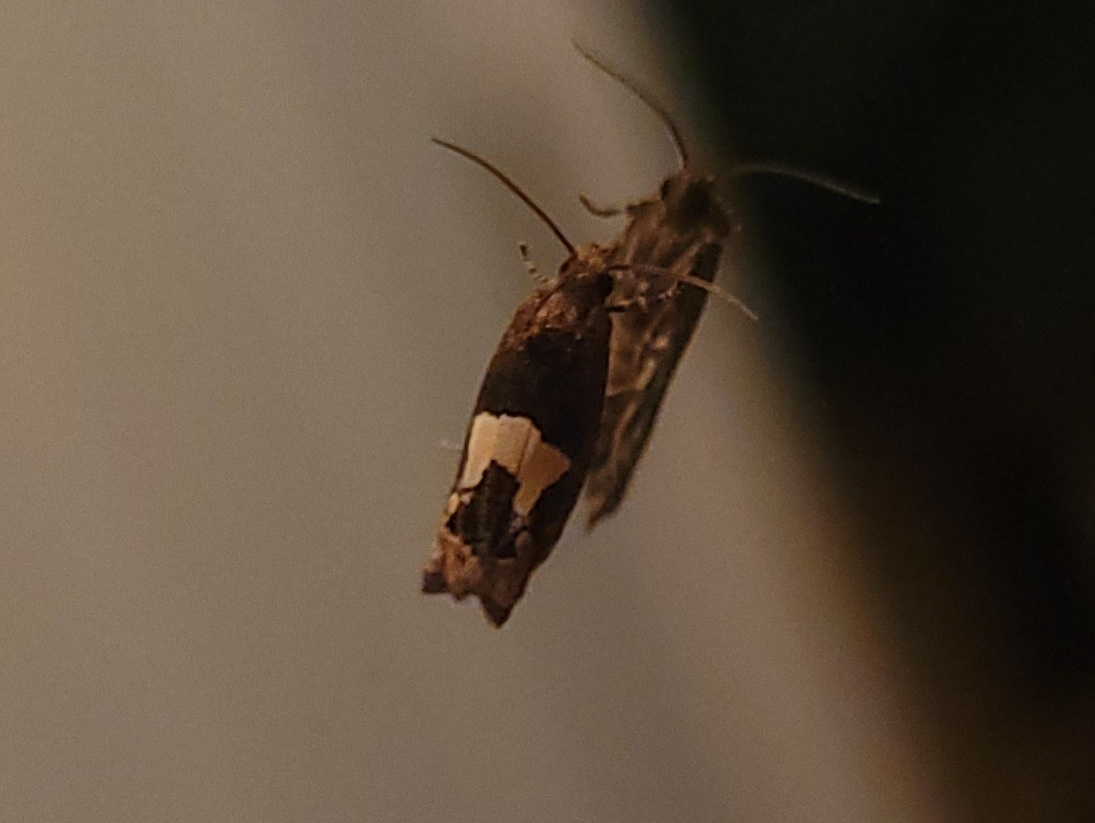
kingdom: Animalia
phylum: Arthropoda
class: Insecta
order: Lepidoptera
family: Tortricidae
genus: Epiblema
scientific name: Epiblema otiosana
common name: Bidens borer moth
